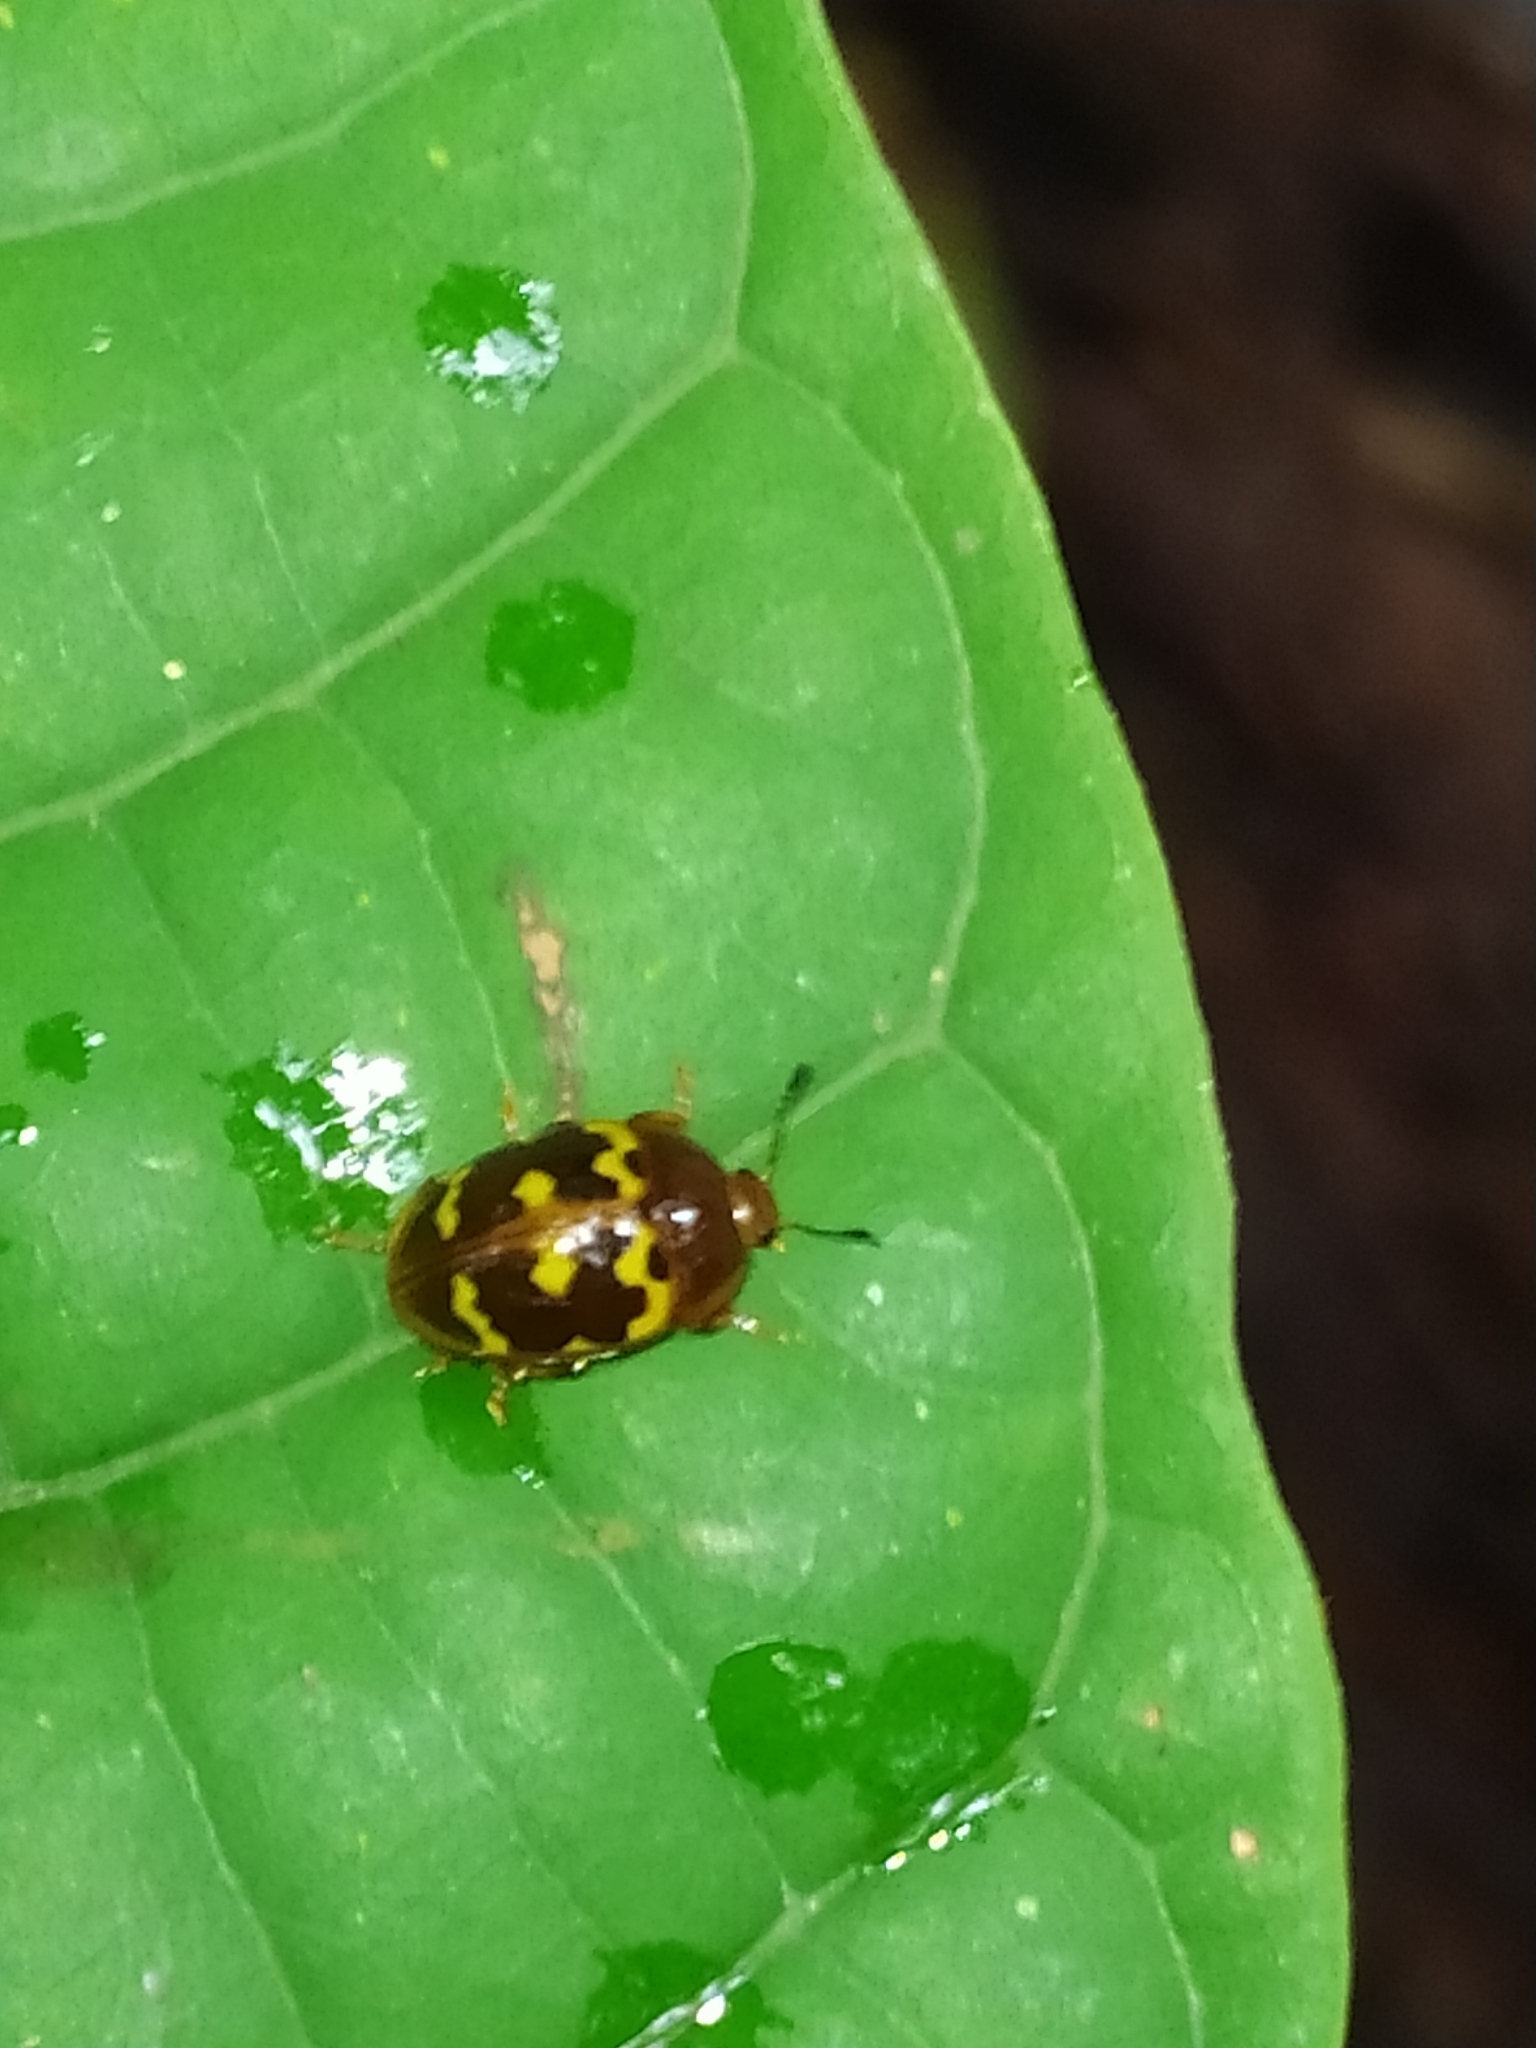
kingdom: Animalia
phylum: Arthropoda
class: Insecta
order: Coleoptera
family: Erotylidae
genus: Iphiclus
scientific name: Iphiclus porcellana
